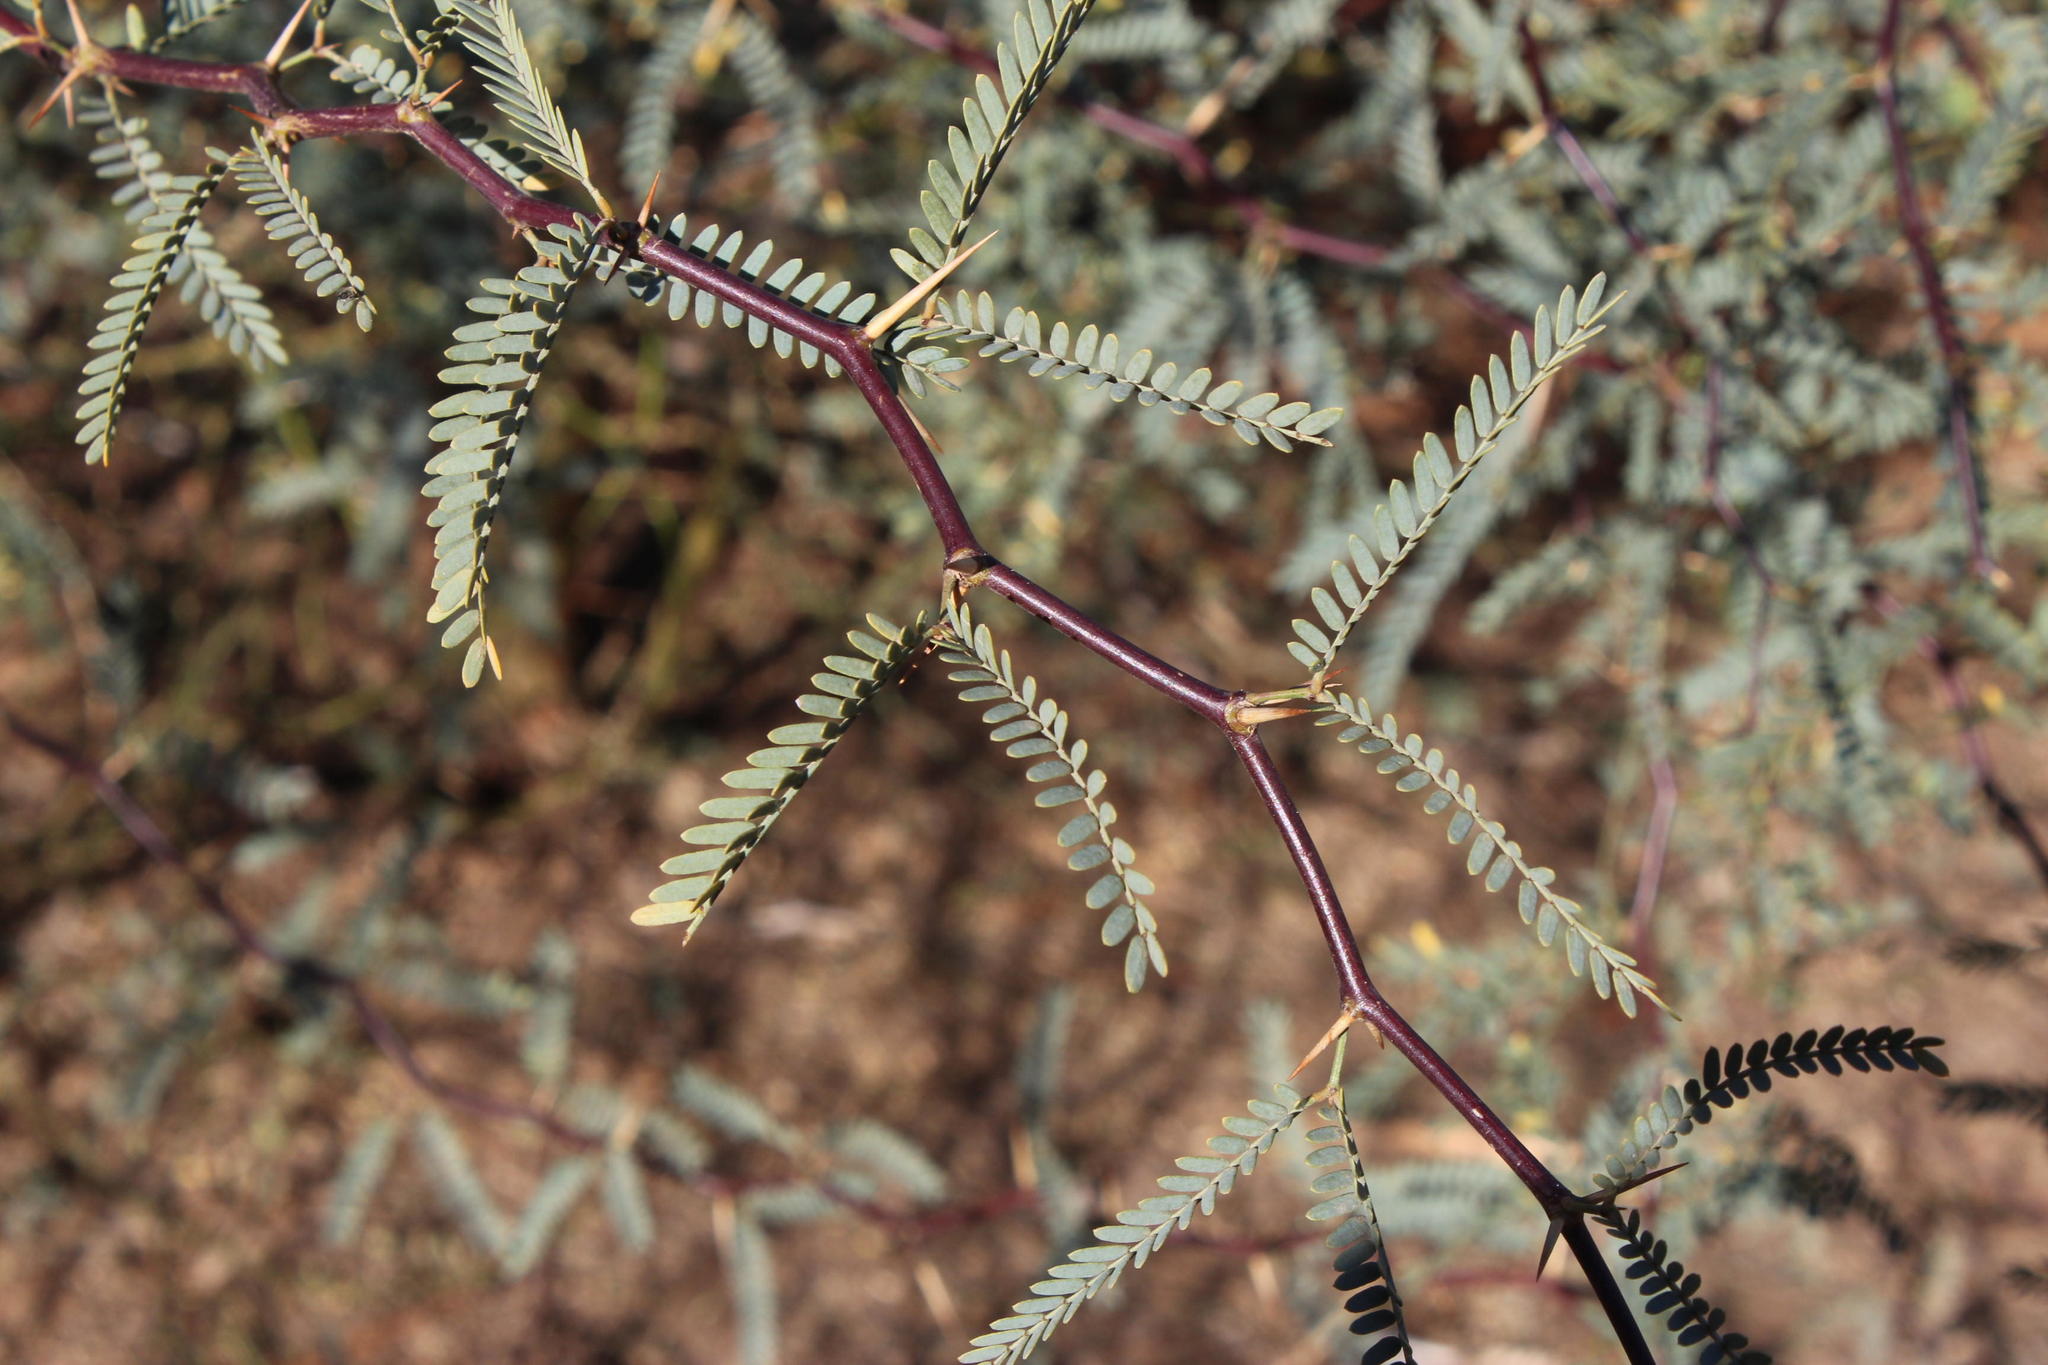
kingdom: Plantae
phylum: Tracheophyta
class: Magnoliopsida
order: Fabales
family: Fabaceae
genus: Prosopis
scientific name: Prosopis glandulosa
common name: Honey mesquite
